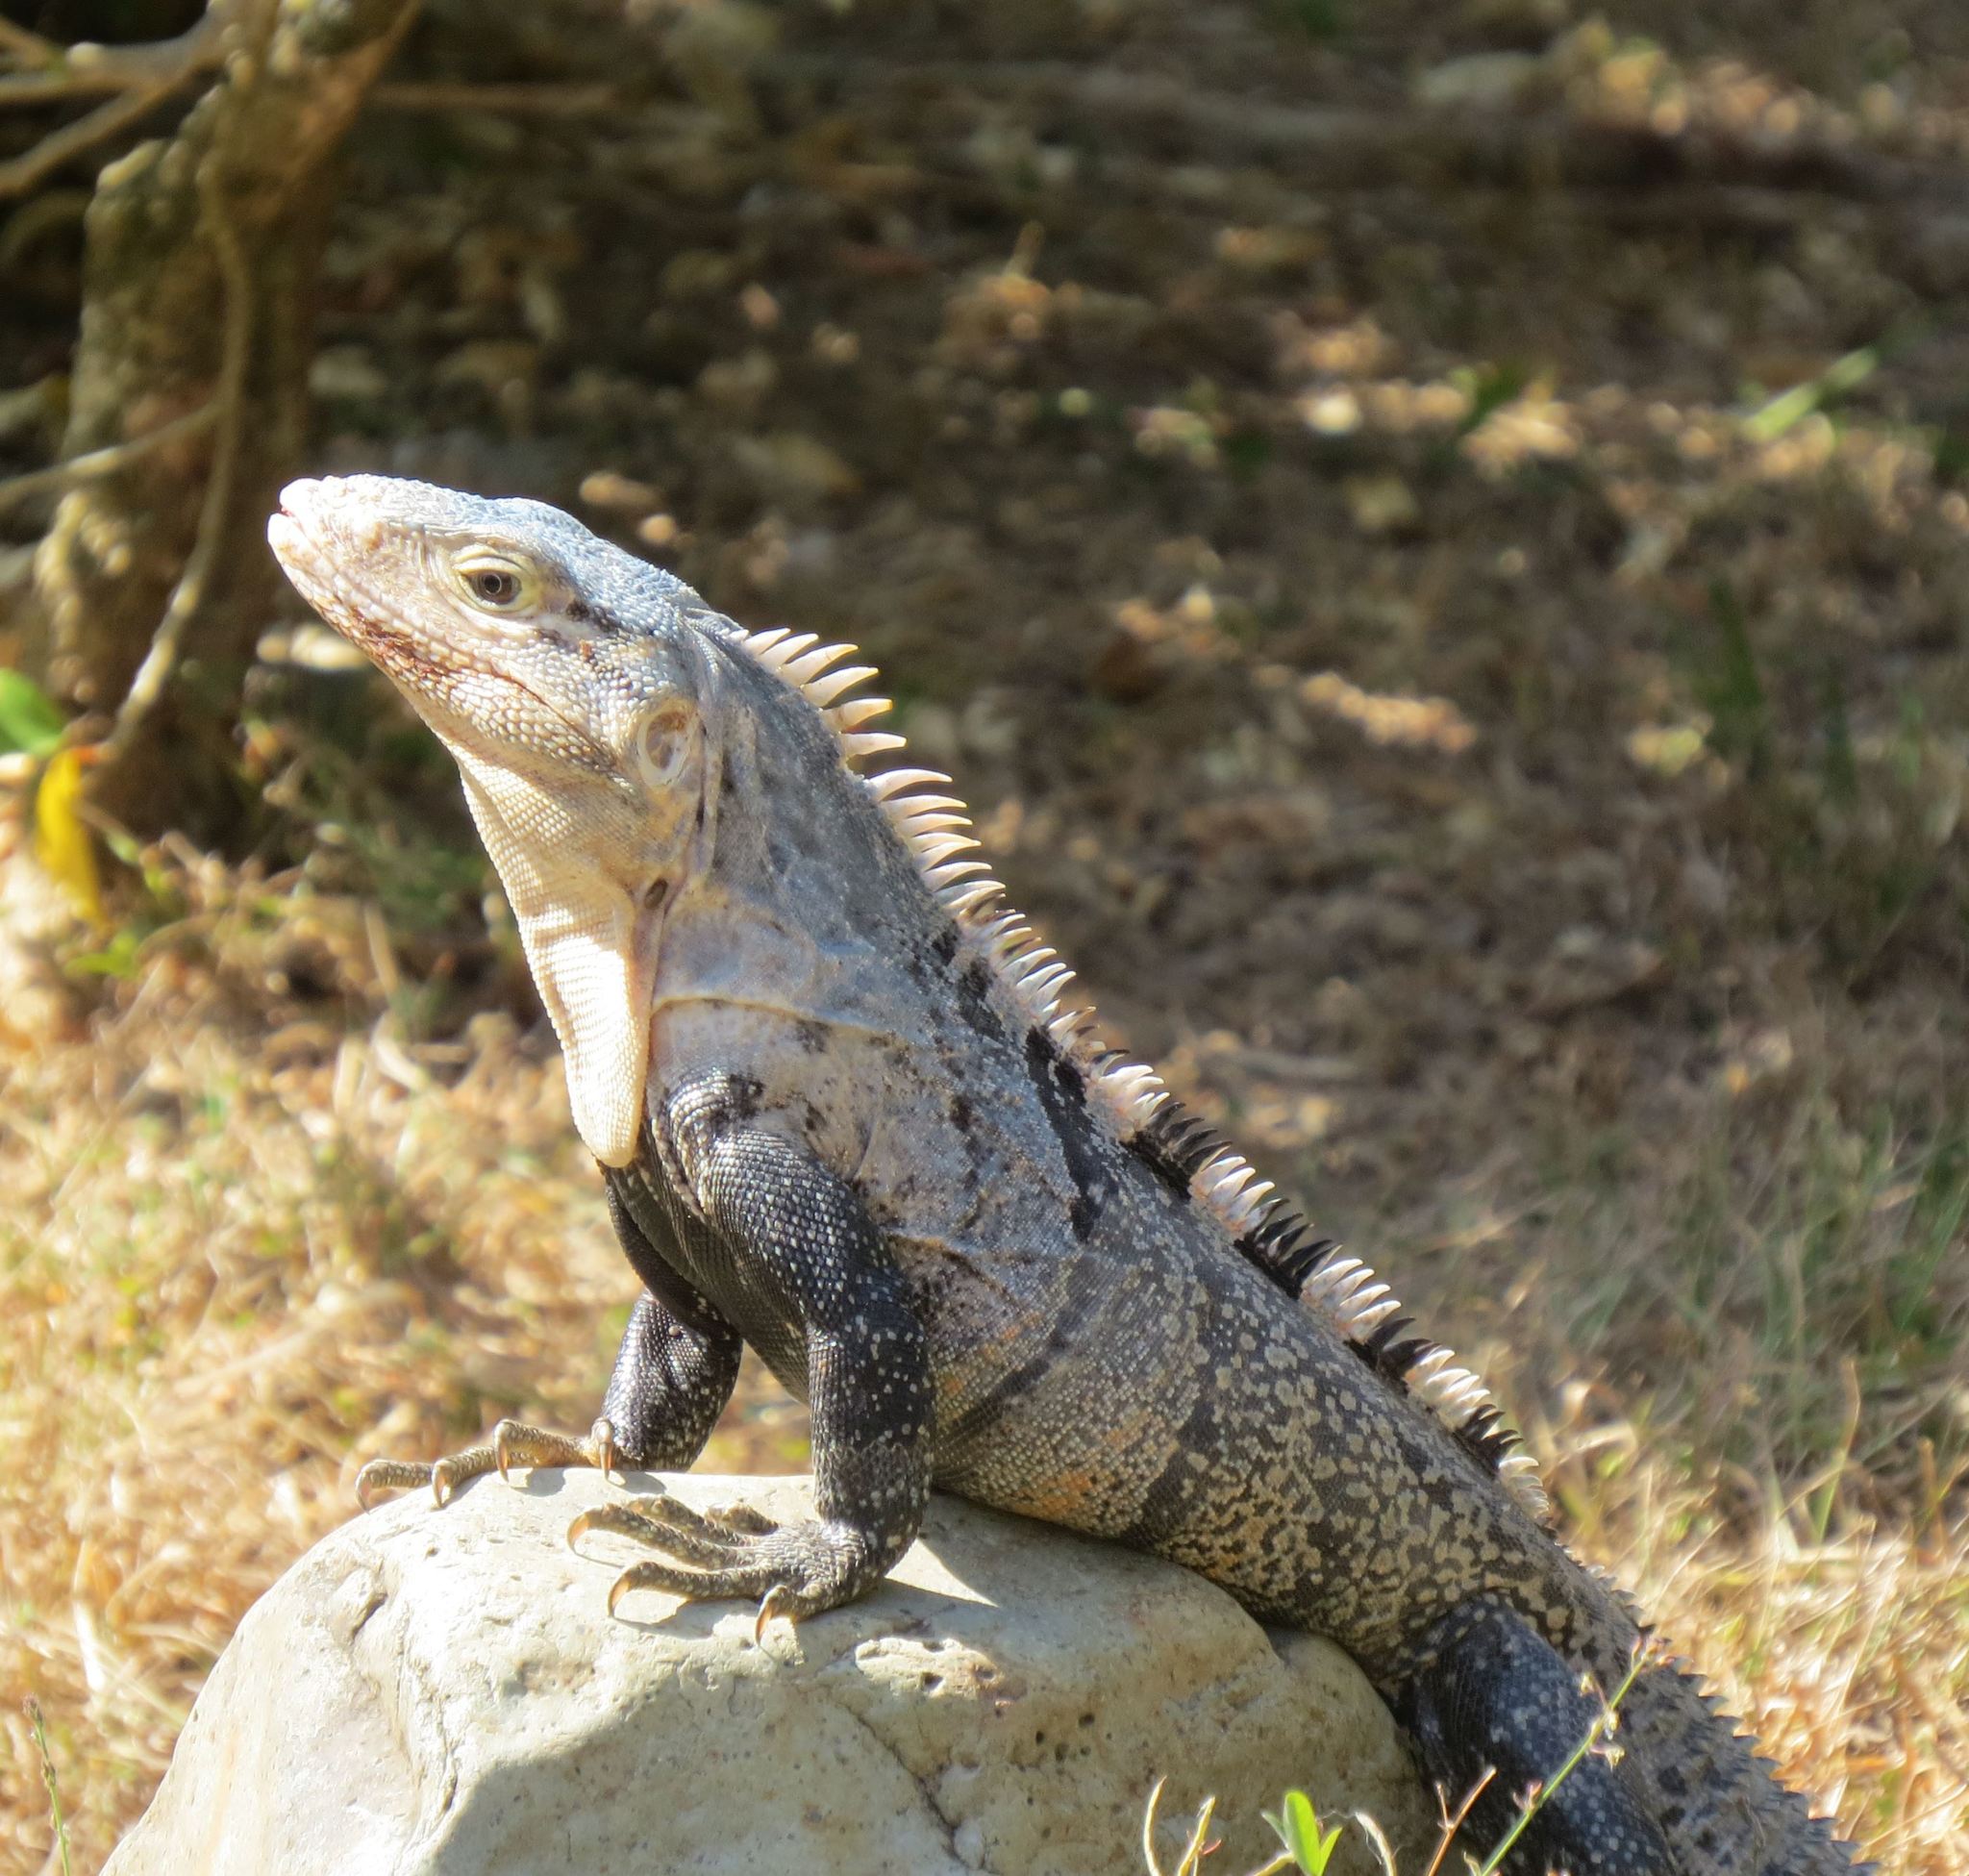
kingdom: Animalia
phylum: Chordata
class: Squamata
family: Iguanidae
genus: Ctenosaura
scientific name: Ctenosaura similis
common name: Black spiny-tailed iguana
